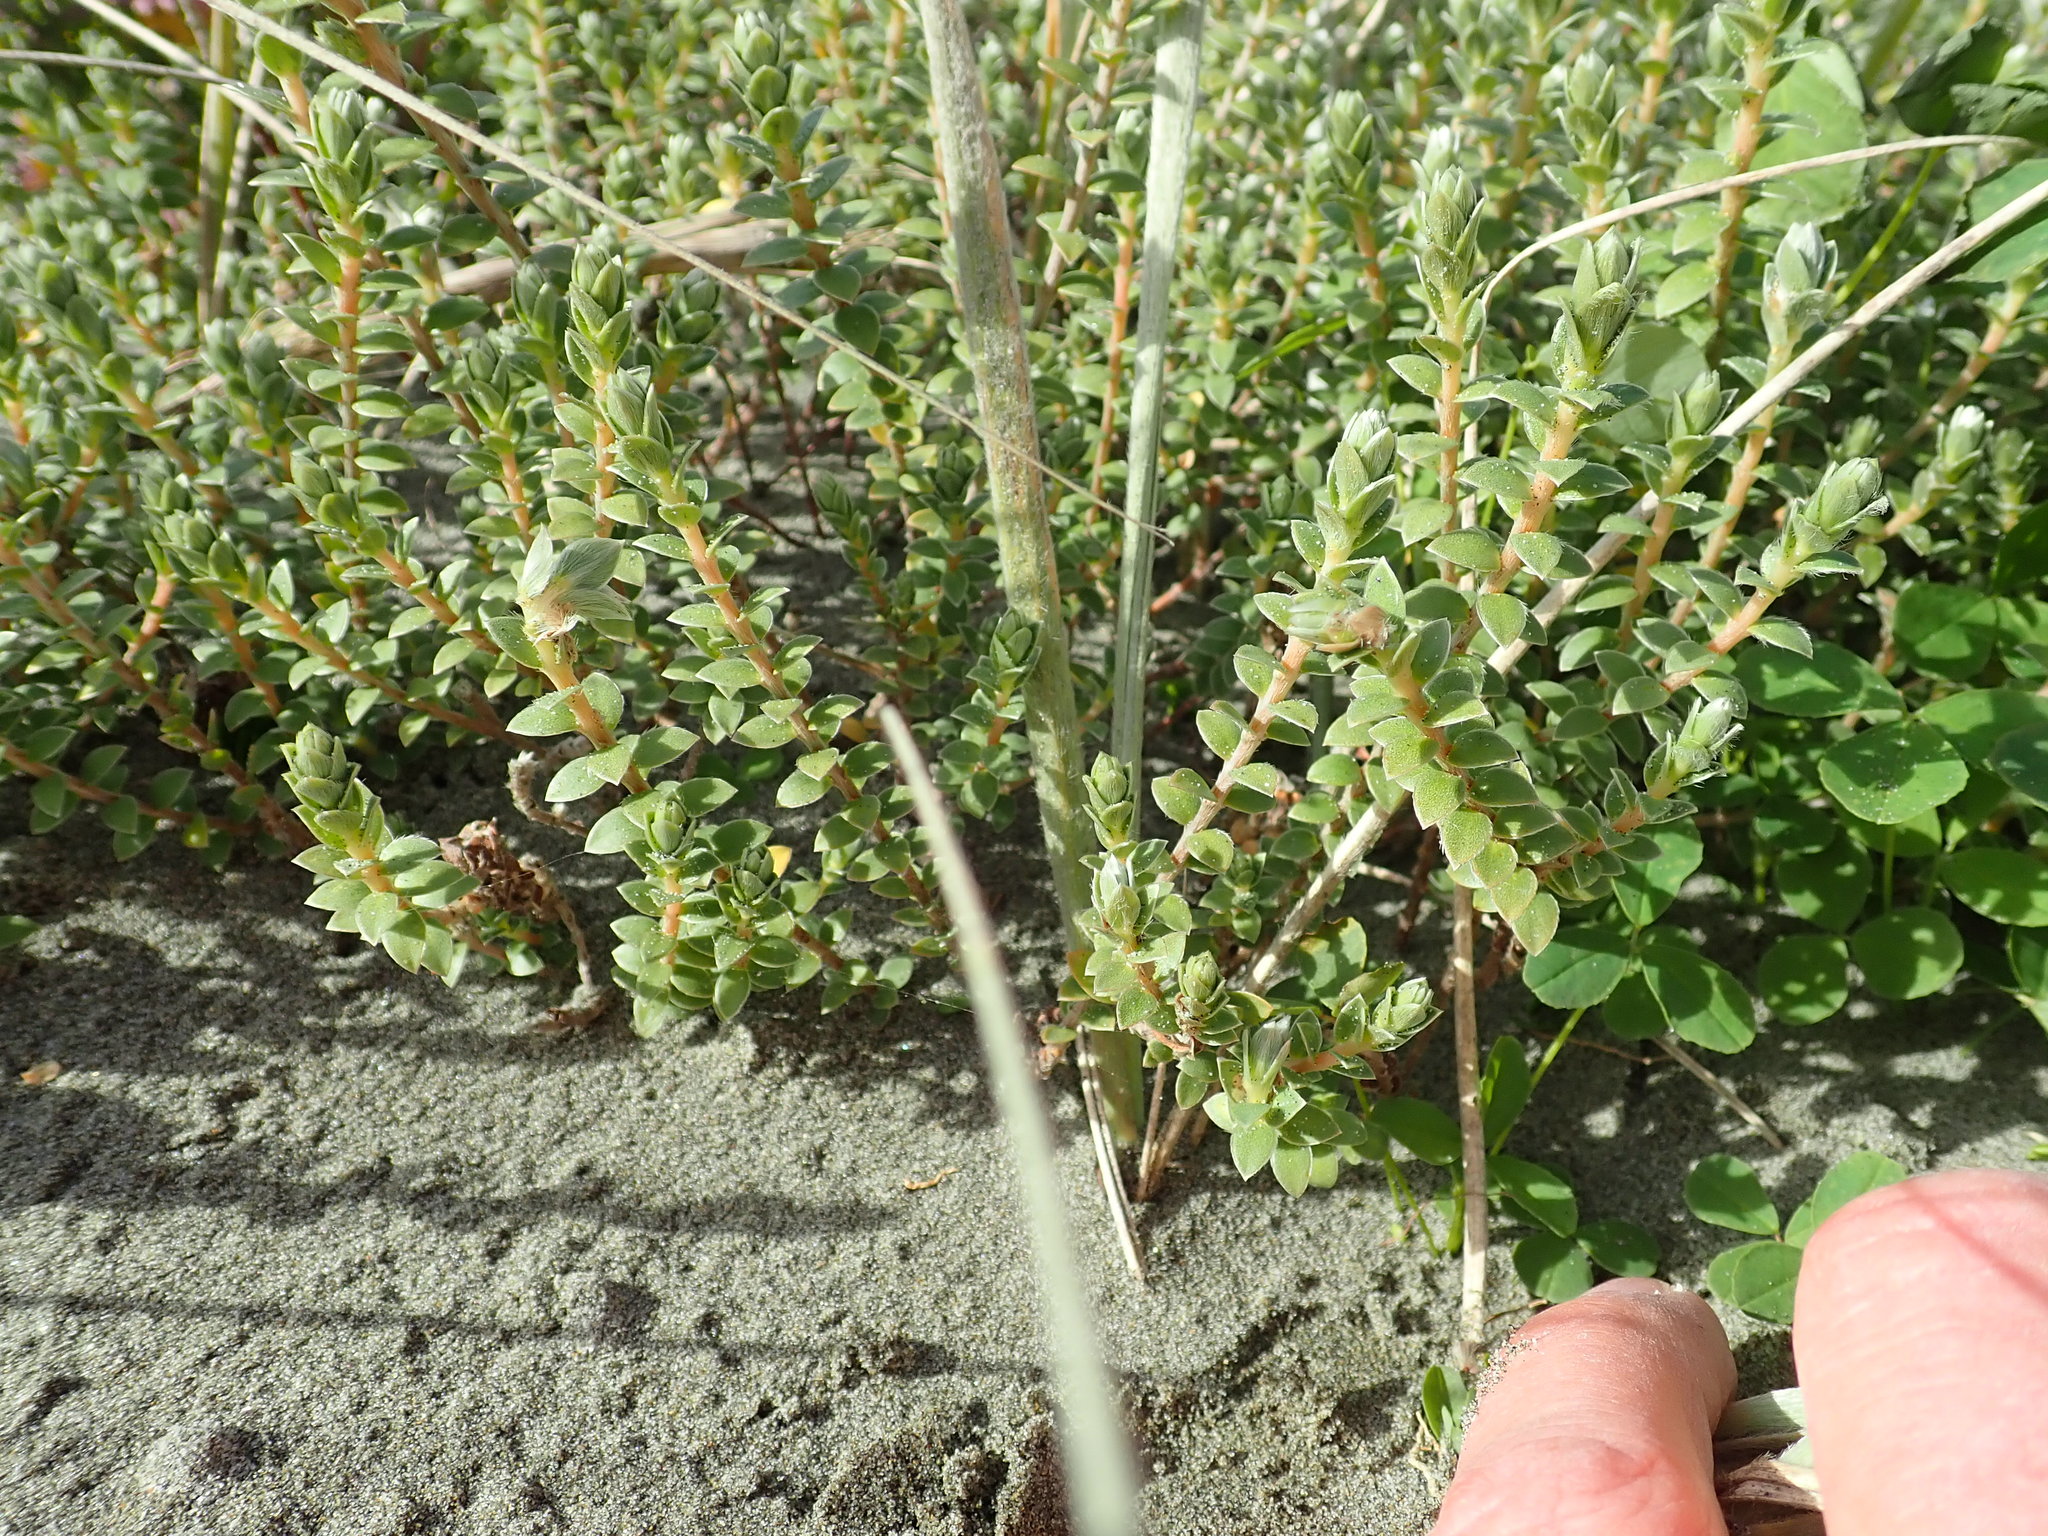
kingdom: Plantae
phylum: Tracheophyta
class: Magnoliopsida
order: Malvales
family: Thymelaeaceae
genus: Pimelea
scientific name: Pimelea villosa
